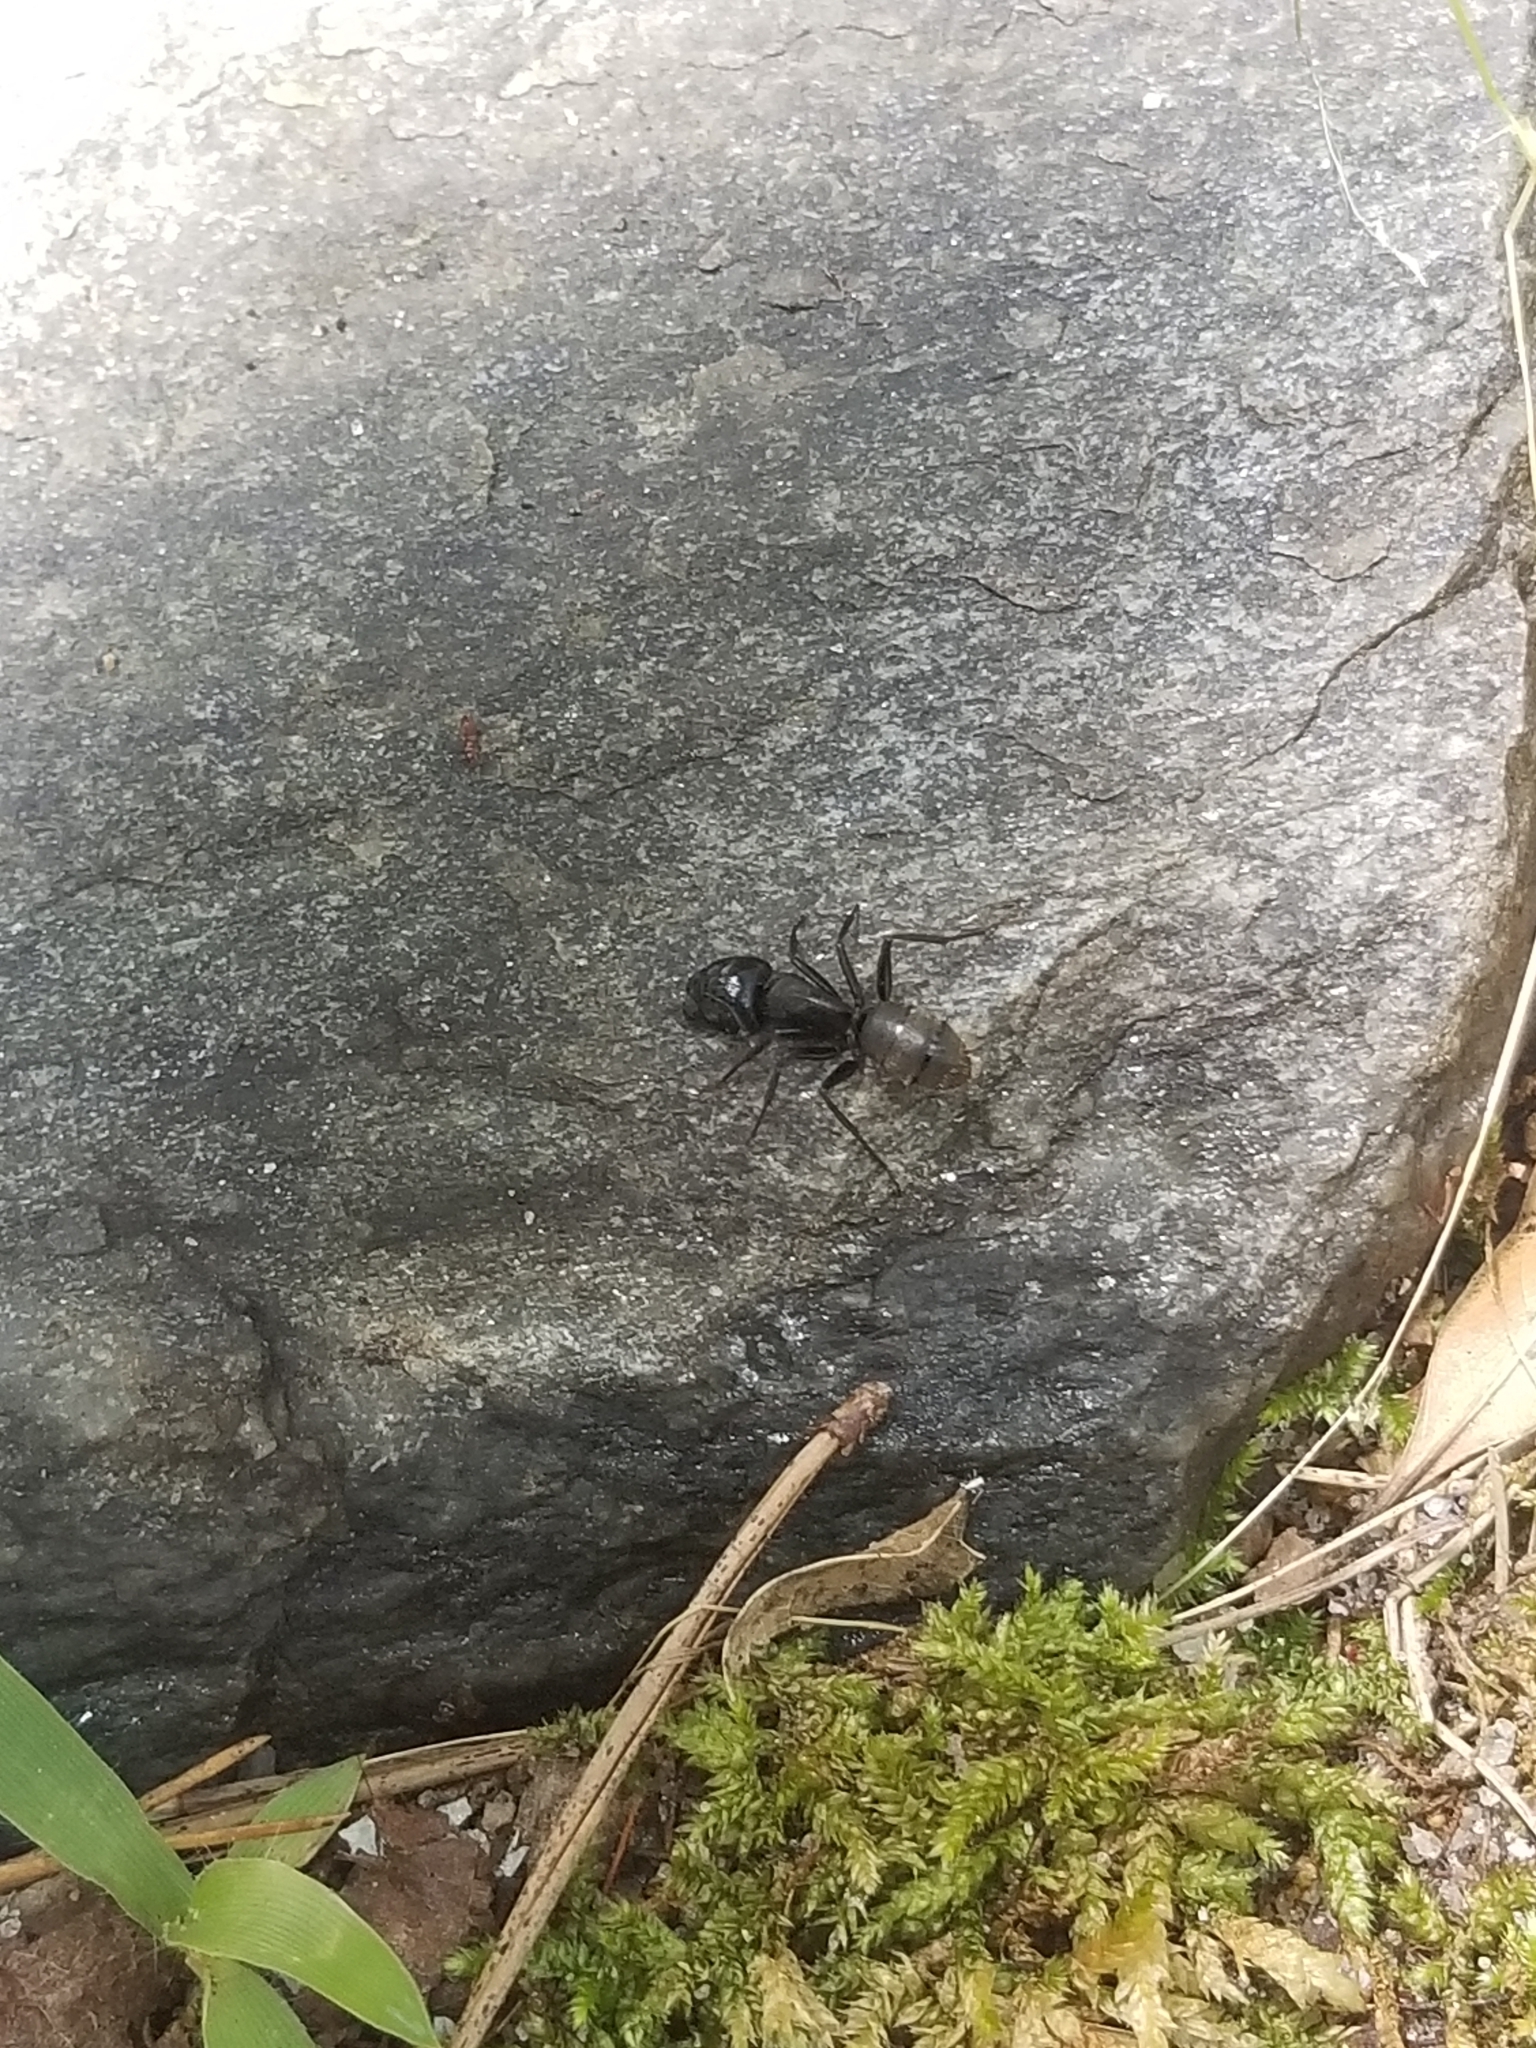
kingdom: Animalia
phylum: Arthropoda
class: Insecta
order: Hymenoptera
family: Formicidae
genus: Camponotus
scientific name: Camponotus pennsylvanicus
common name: Black carpenter ant
